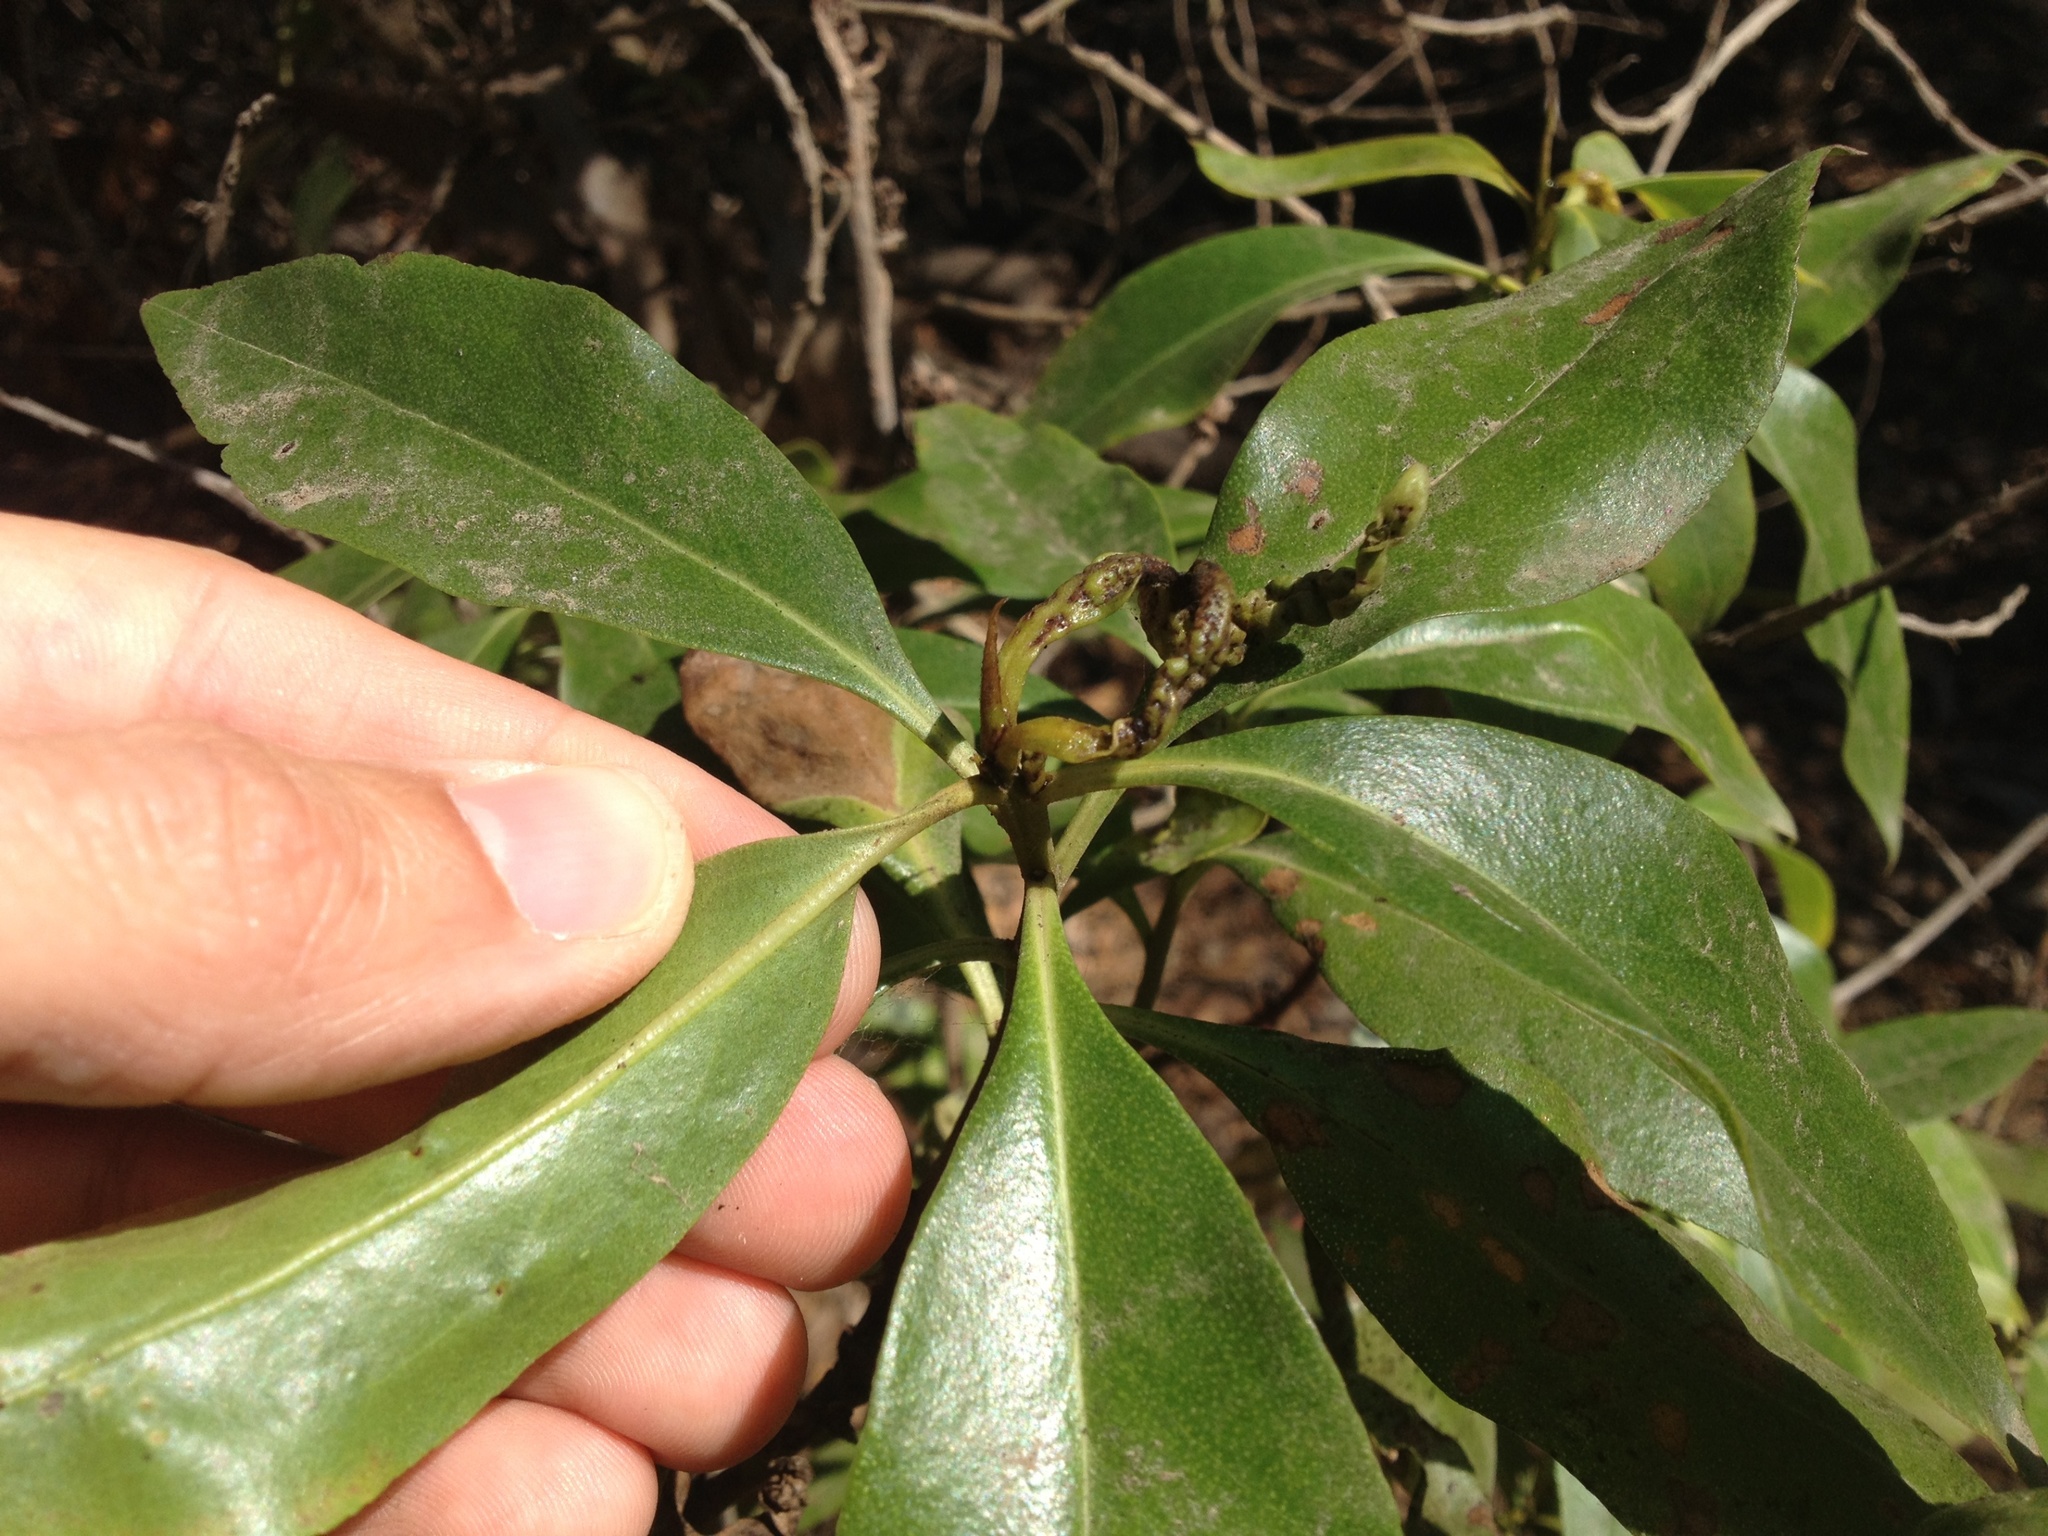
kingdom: Plantae
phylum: Tracheophyta
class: Magnoliopsida
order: Lamiales
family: Scrophulariaceae
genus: Myoporum
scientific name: Myoporum laetum
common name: Ngaio tree
